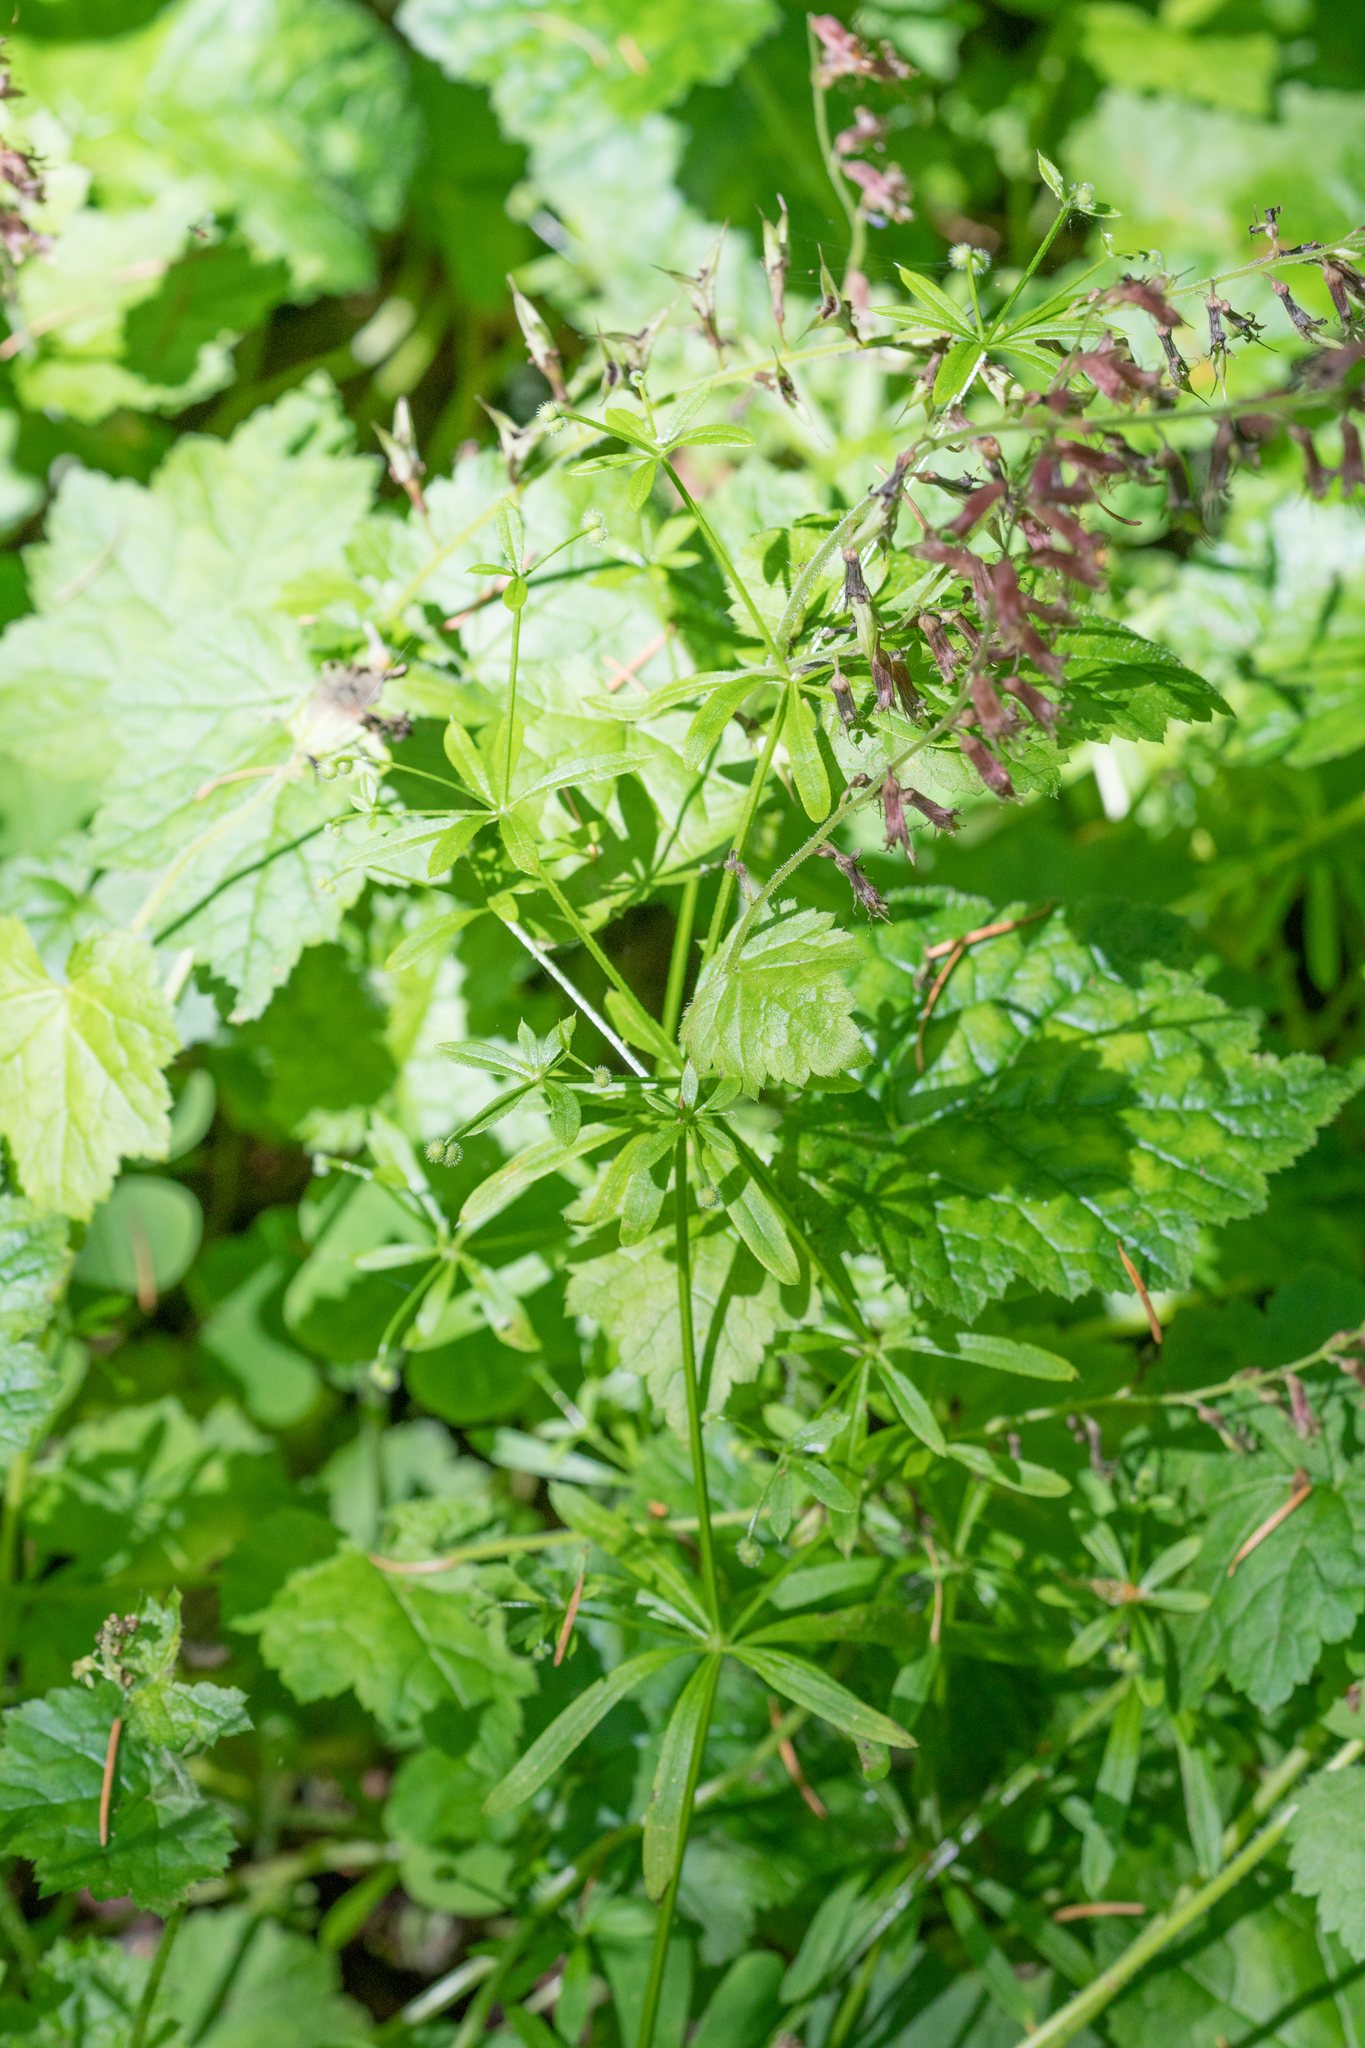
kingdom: Plantae
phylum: Tracheophyta
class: Magnoliopsida
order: Gentianales
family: Rubiaceae
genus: Galium
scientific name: Galium aparine
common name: Cleavers
